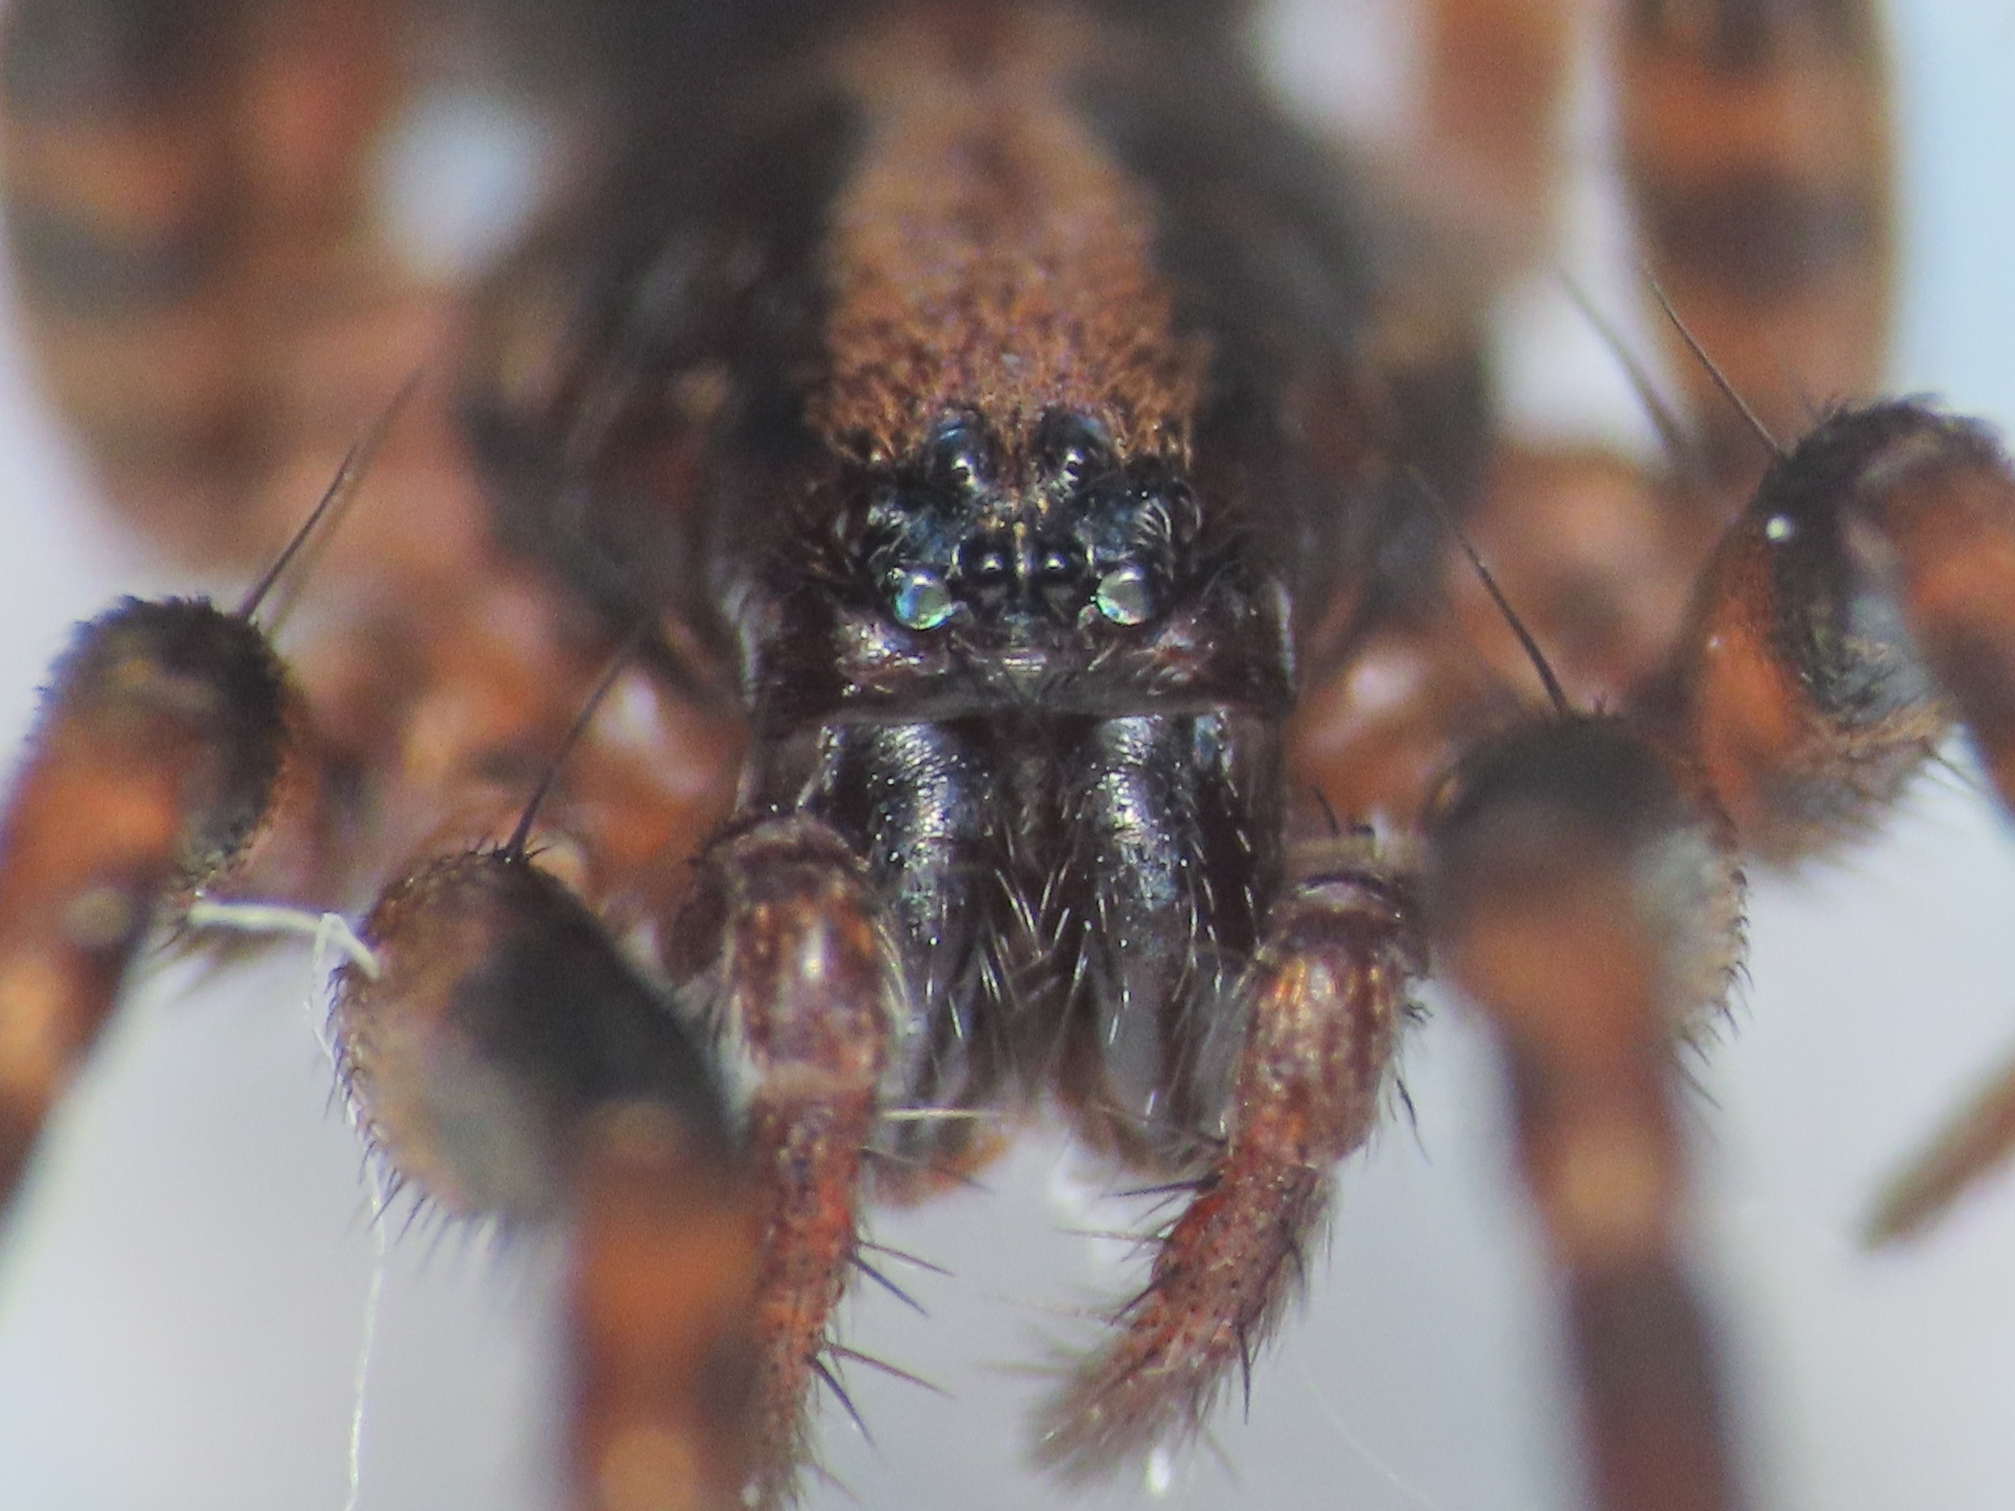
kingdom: Animalia
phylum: Arthropoda
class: Arachnida
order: Araneae
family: Liocranidae
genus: Agroeca
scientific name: Agroeca cuprea
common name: Golden lantern-spider
